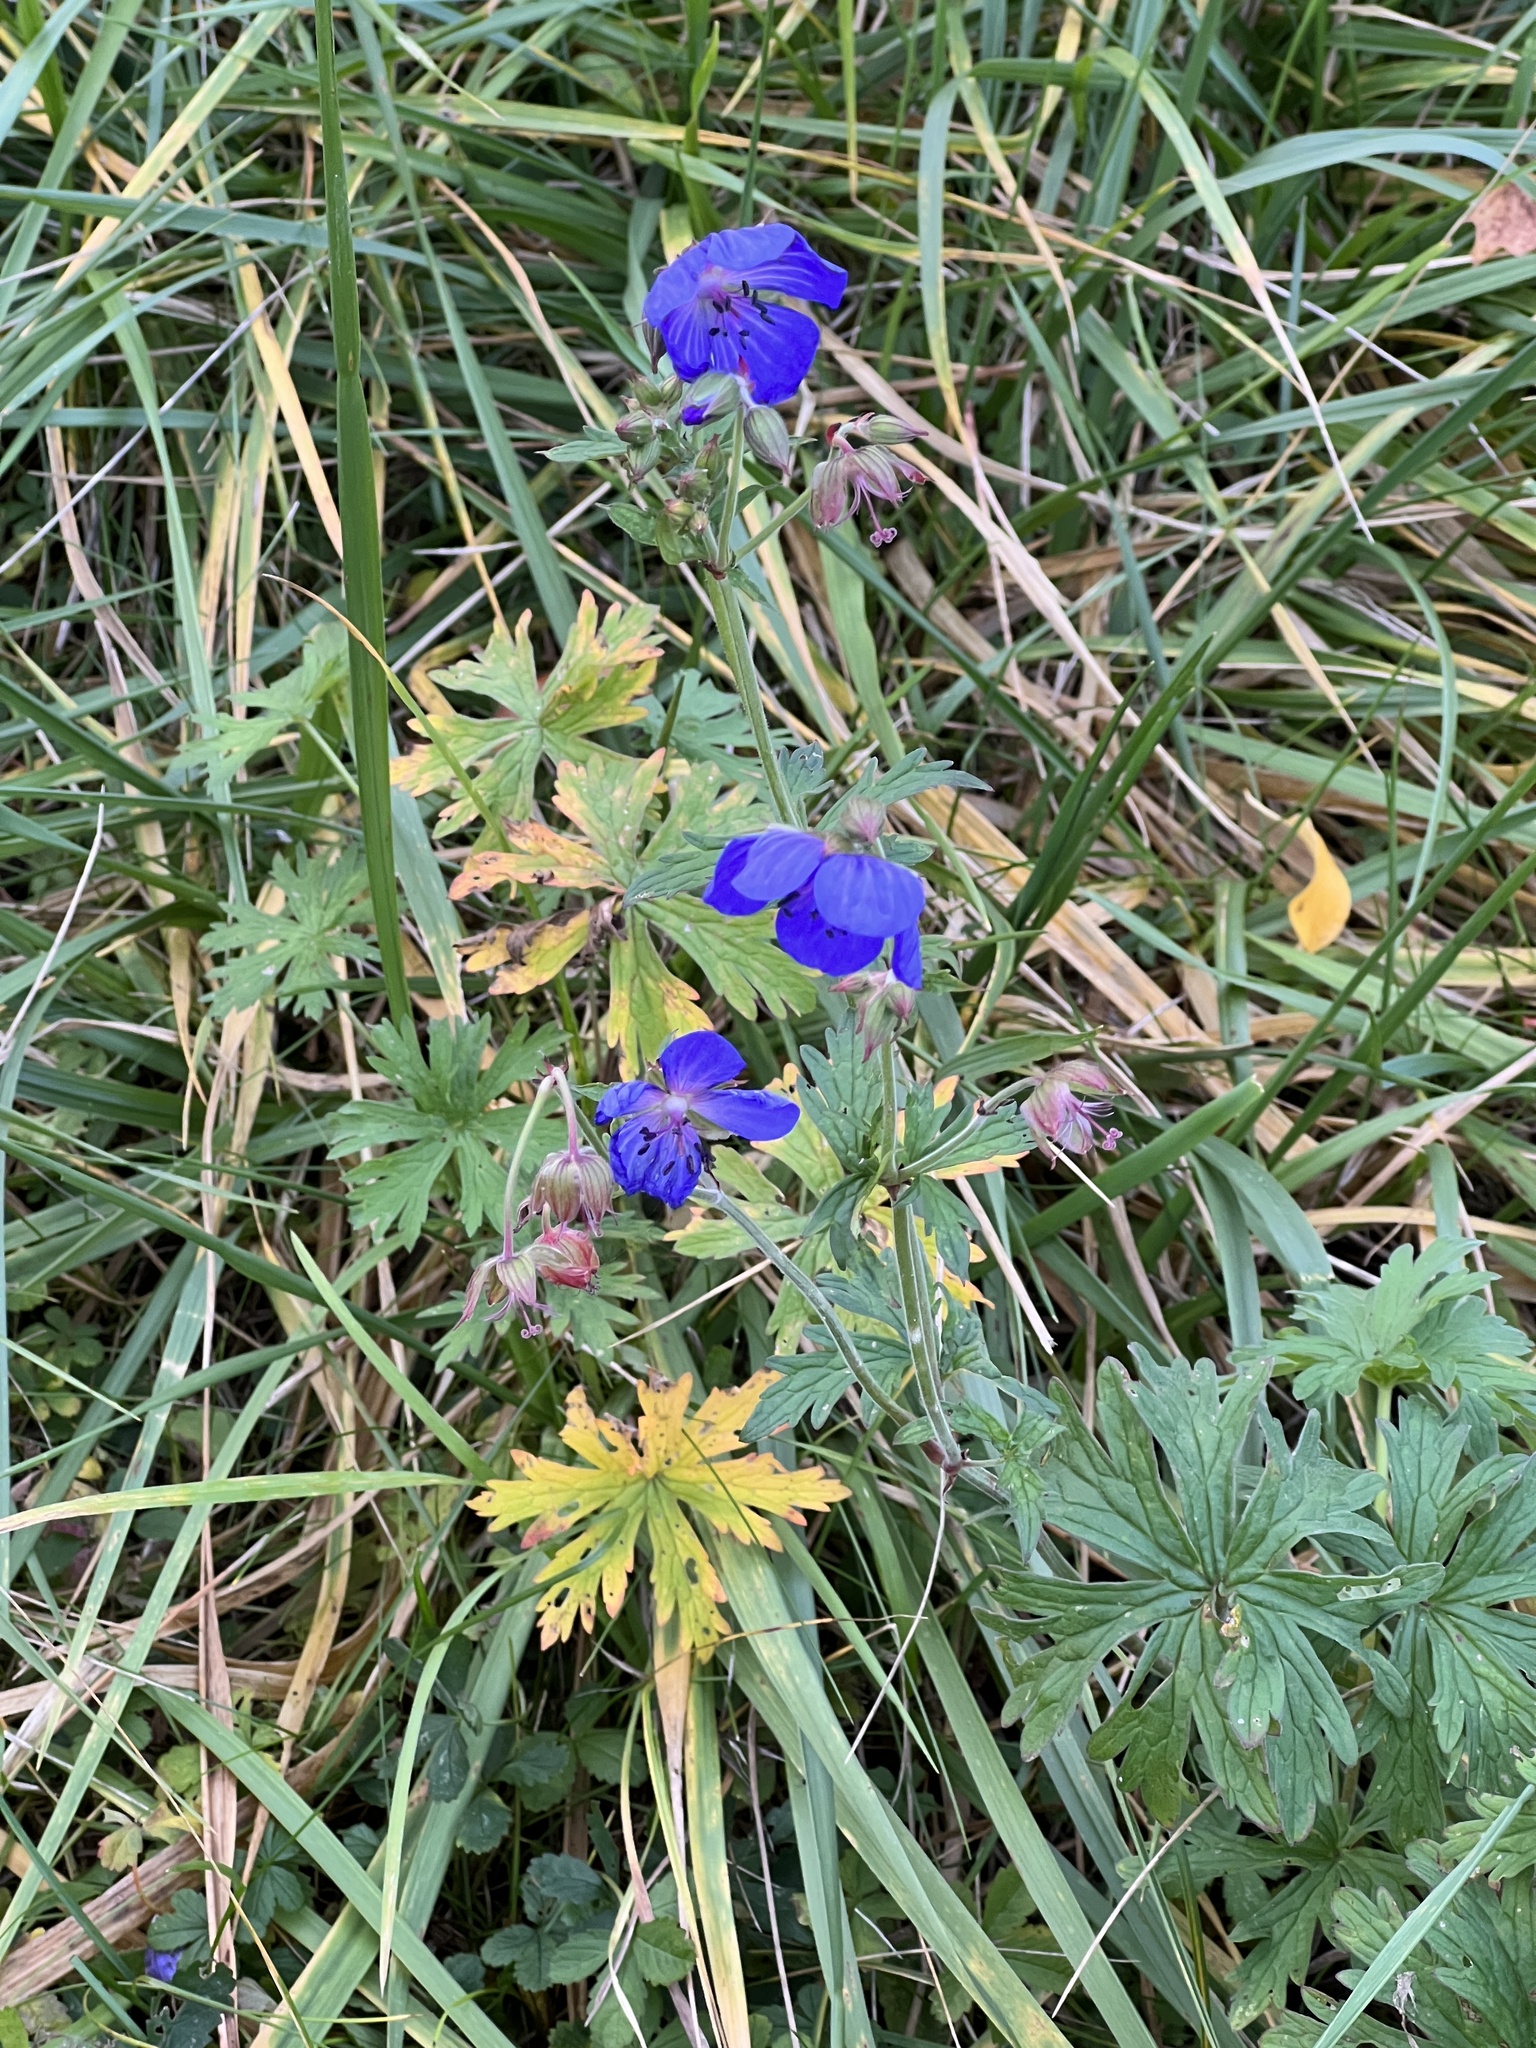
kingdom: Plantae
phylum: Tracheophyta
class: Magnoliopsida
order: Geraniales
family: Geraniaceae
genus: Geranium
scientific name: Geranium pratense
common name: Meadow crane's-bill
